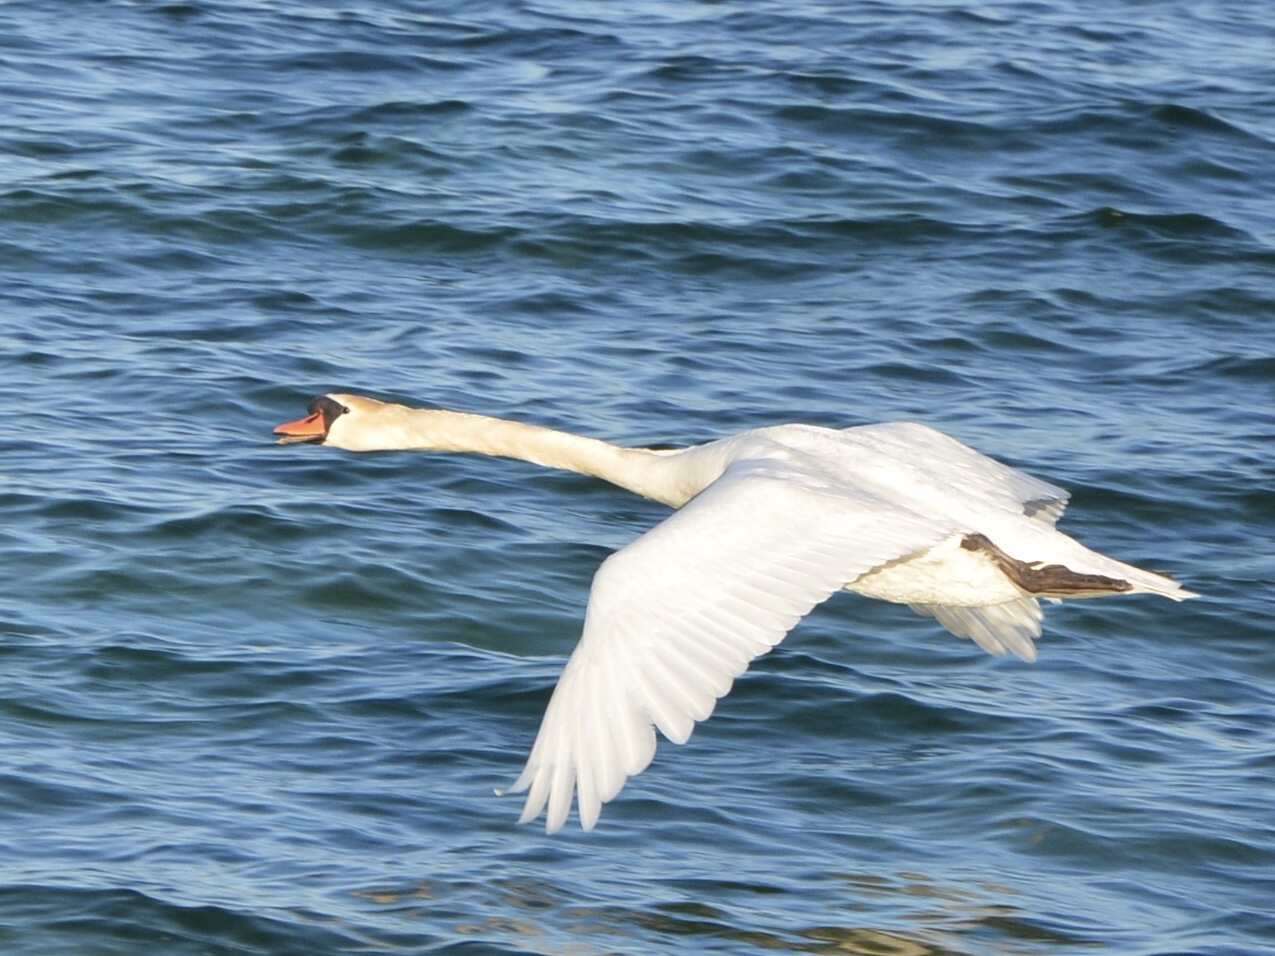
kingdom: Animalia
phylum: Chordata
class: Aves
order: Anseriformes
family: Anatidae
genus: Cygnus
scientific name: Cygnus olor
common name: Mute swan
